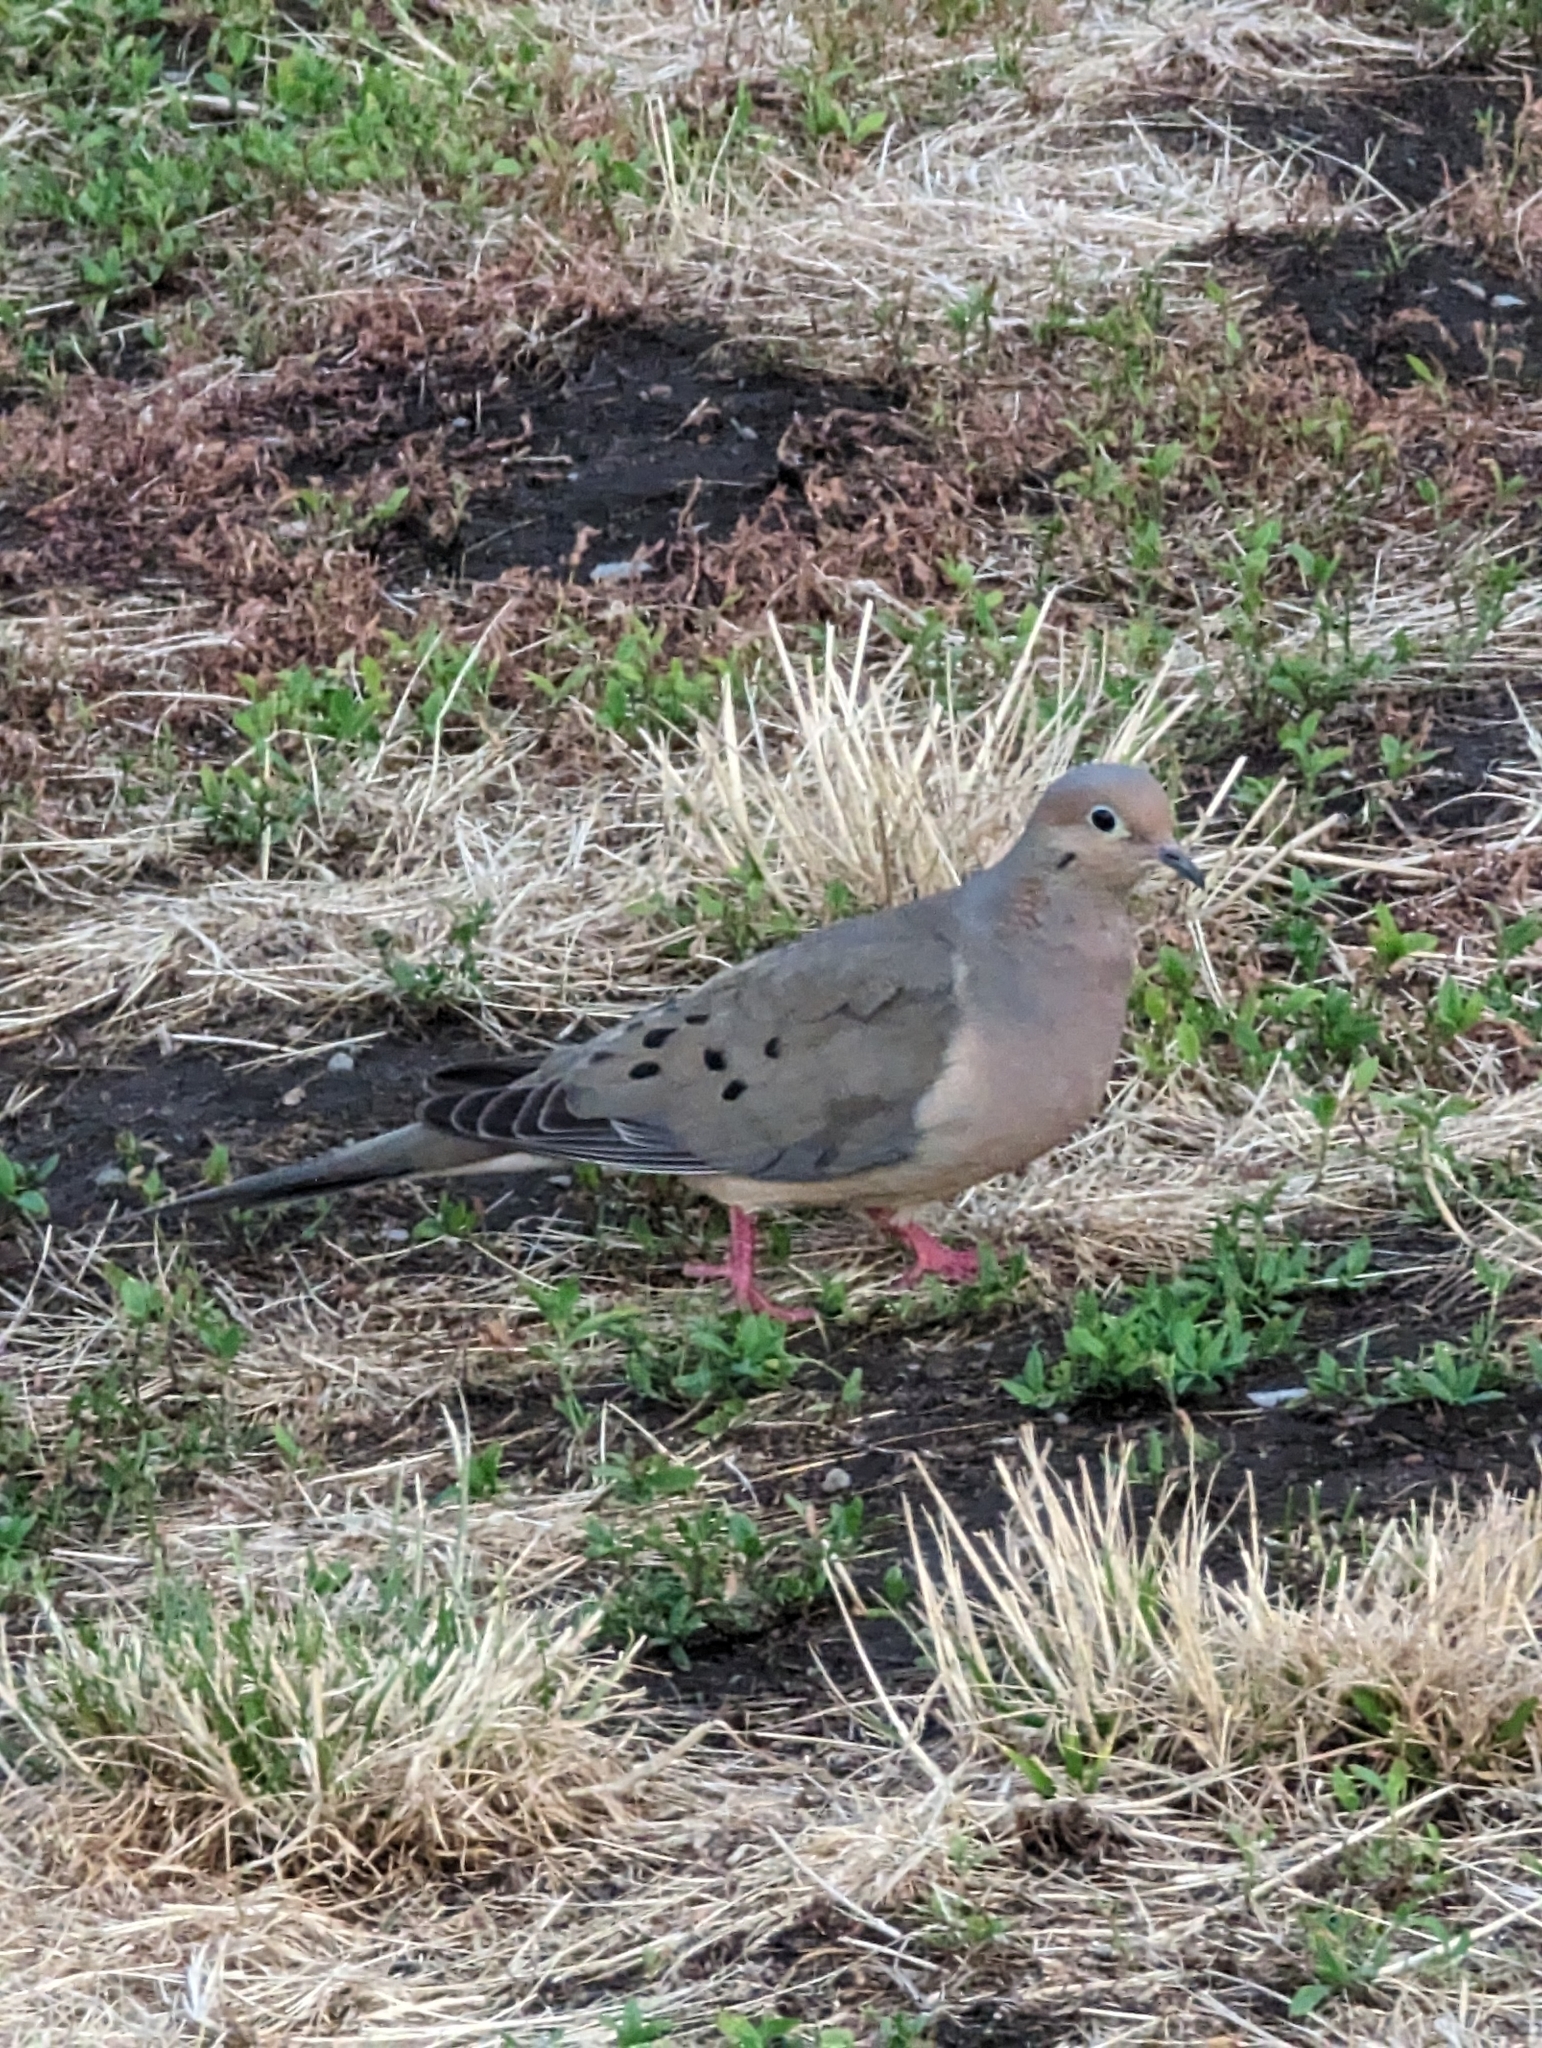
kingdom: Animalia
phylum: Chordata
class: Aves
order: Columbiformes
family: Columbidae
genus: Zenaida
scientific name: Zenaida macroura
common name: Mourning dove
